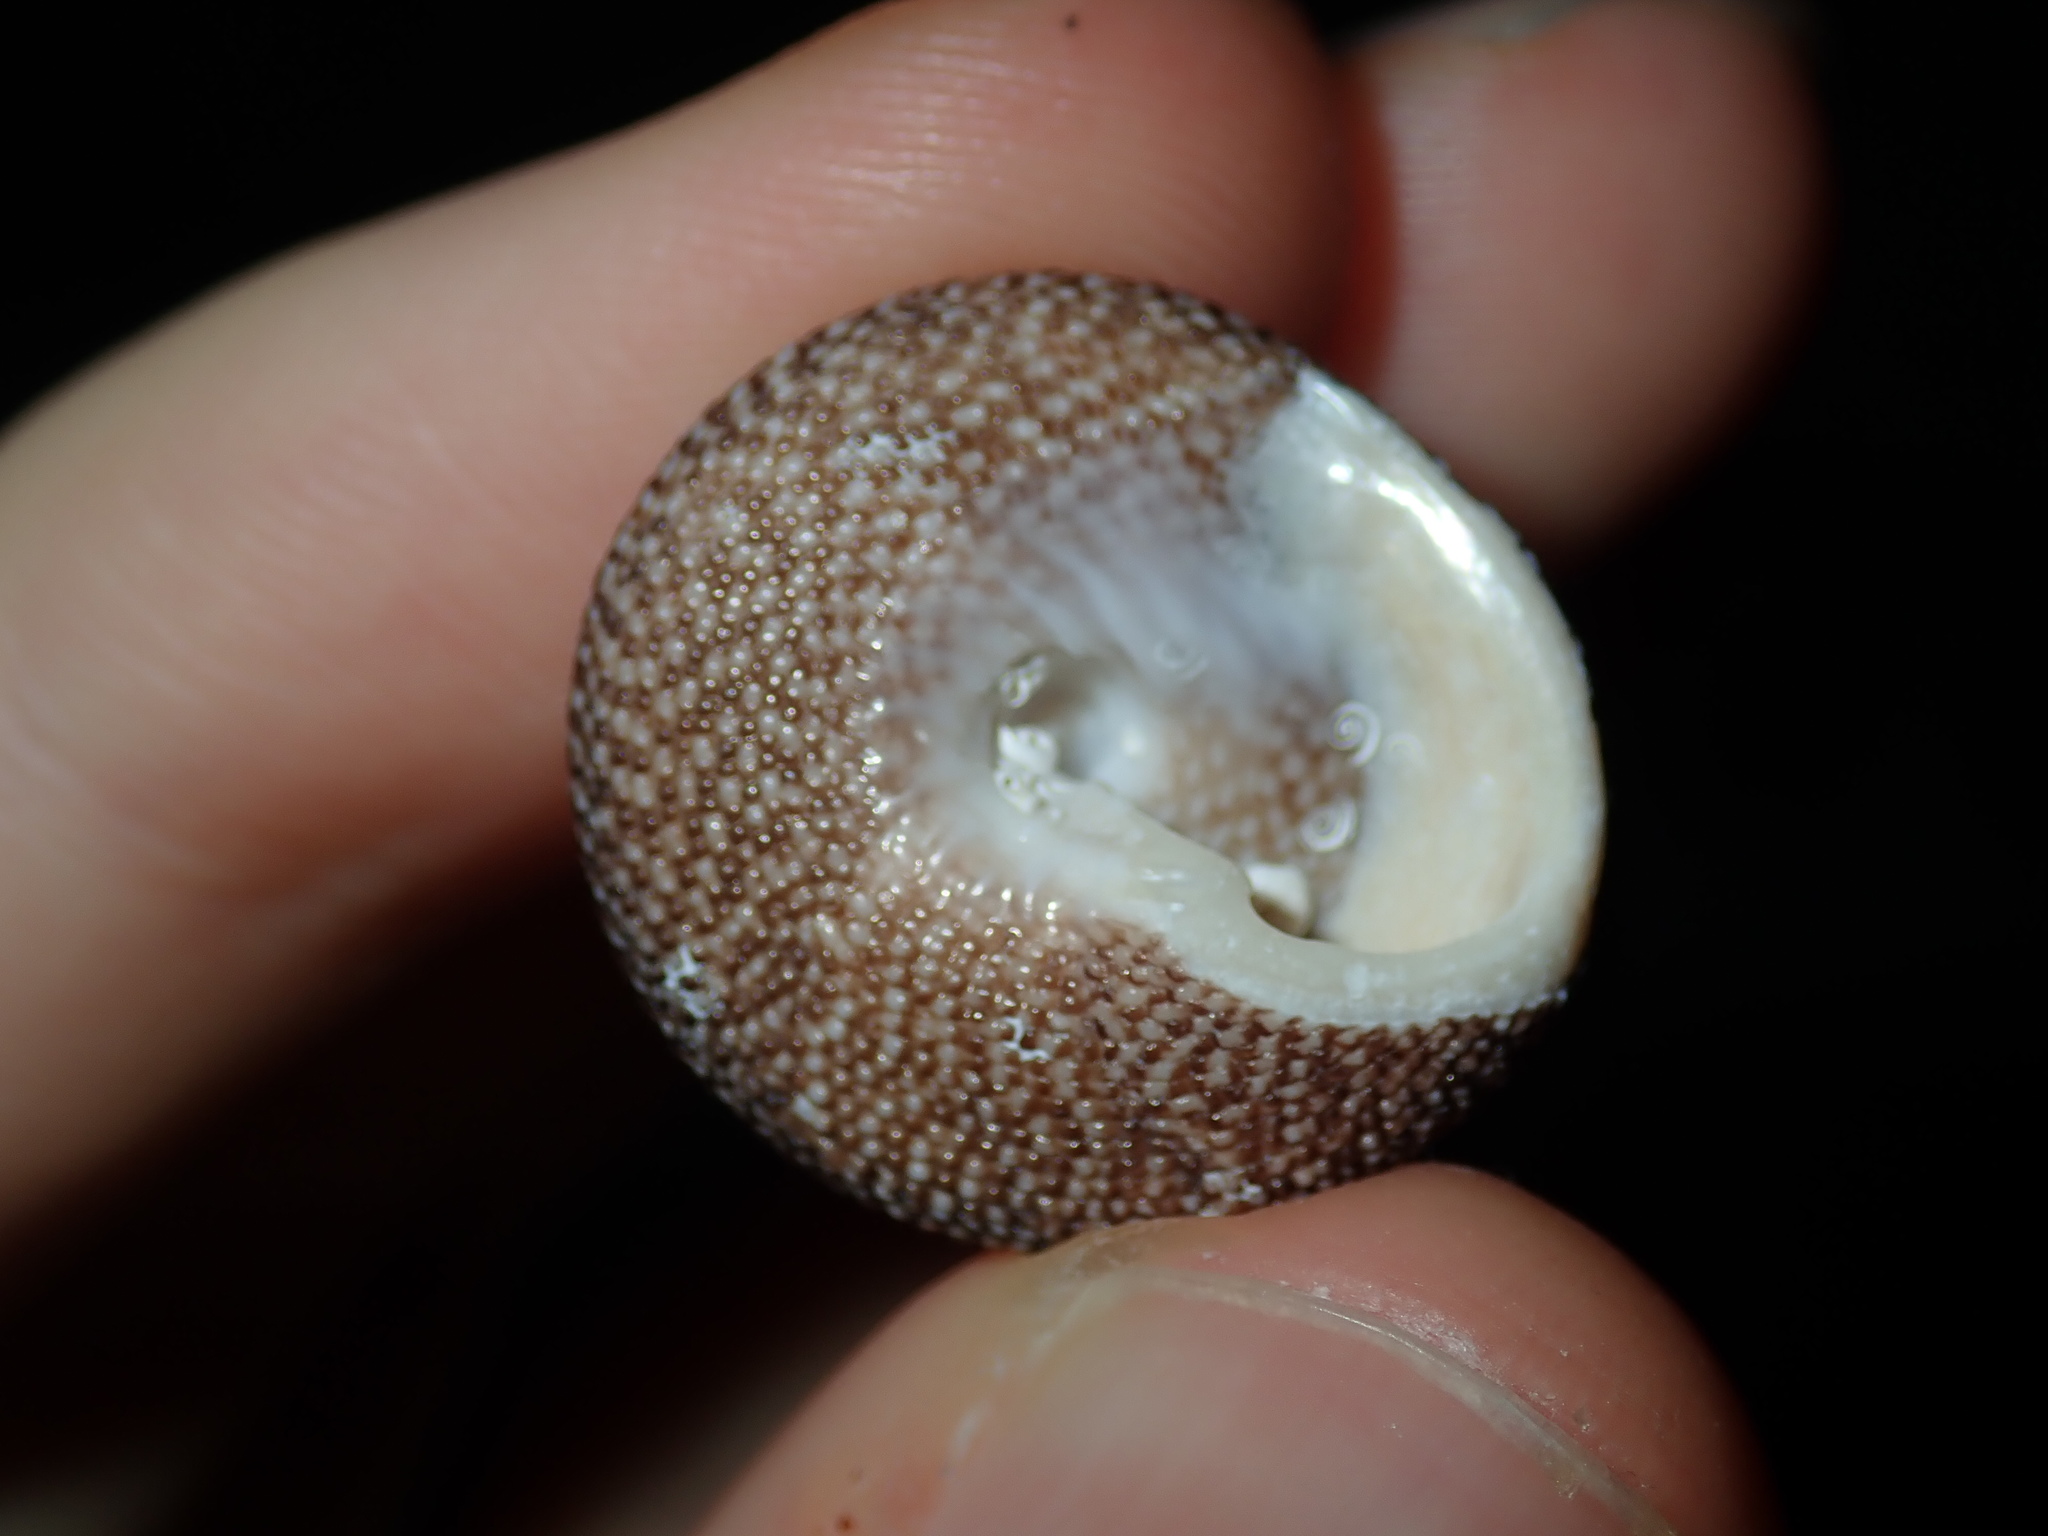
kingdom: Animalia
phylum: Mollusca
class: Gastropoda
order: Trochida
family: Trochidae
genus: Clanculus
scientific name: Clanculus maugeri
